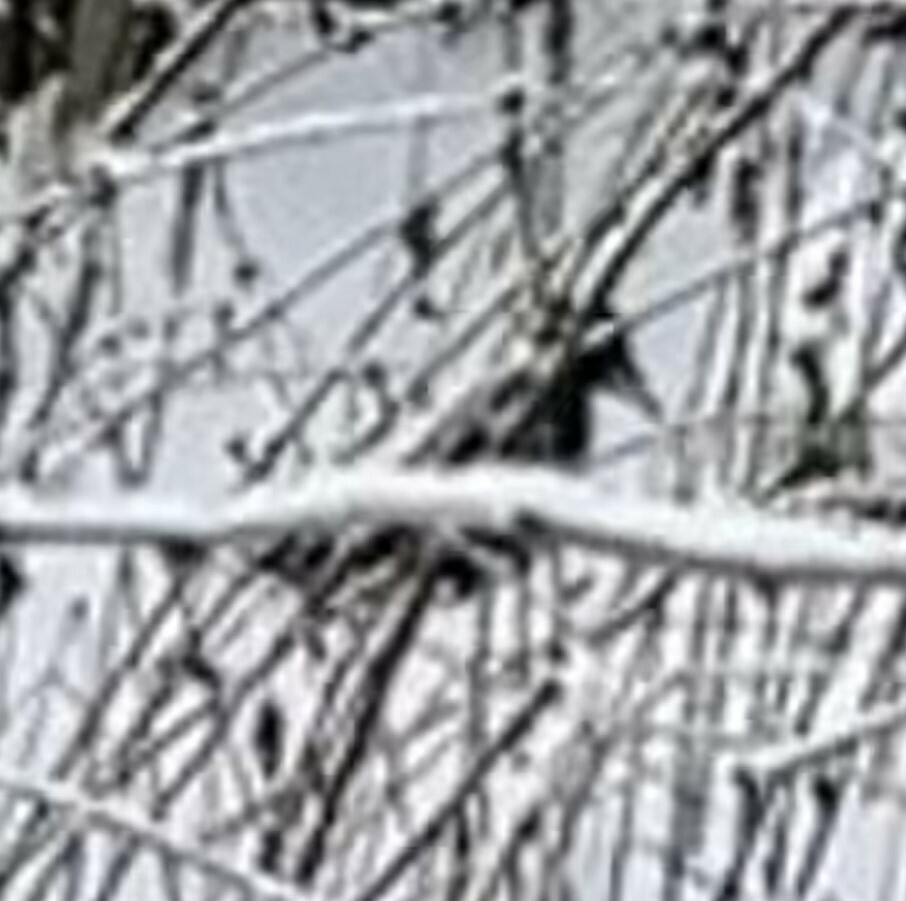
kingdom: Animalia
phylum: Chordata
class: Aves
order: Piciformes
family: Picidae
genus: Dryocopus
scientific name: Dryocopus martius
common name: Black woodpecker
